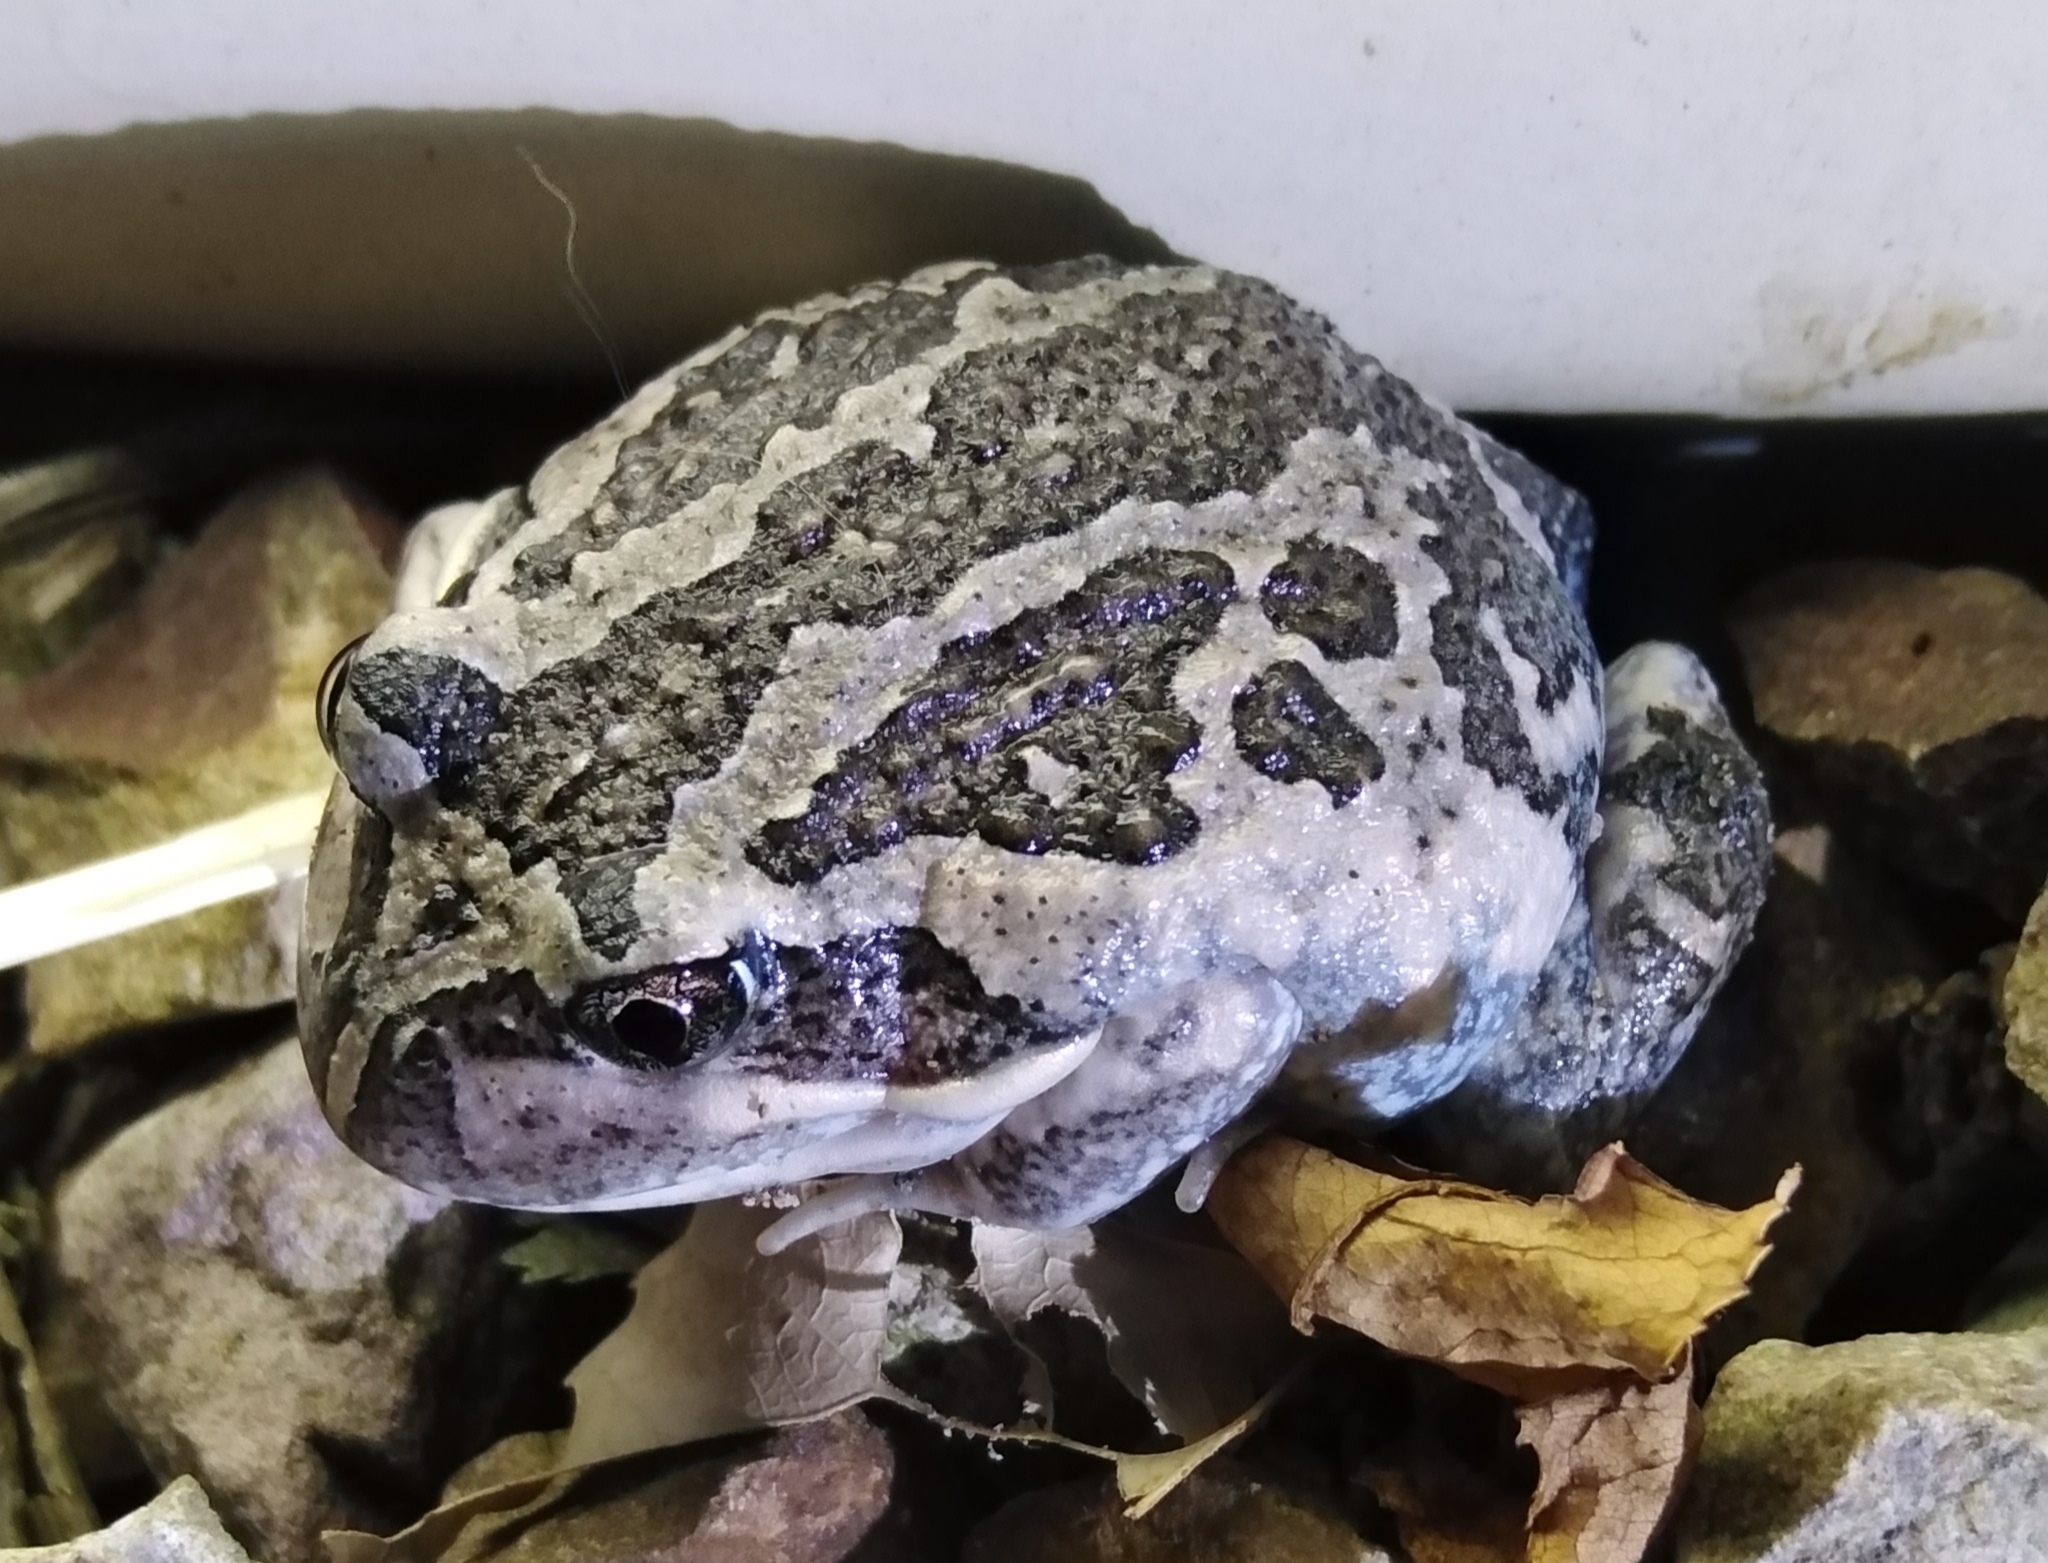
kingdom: Animalia
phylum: Chordata
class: Amphibia
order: Anura
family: Limnodynastidae
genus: Limnodynastes
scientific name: Limnodynastes dumerilii
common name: Banjo frog
